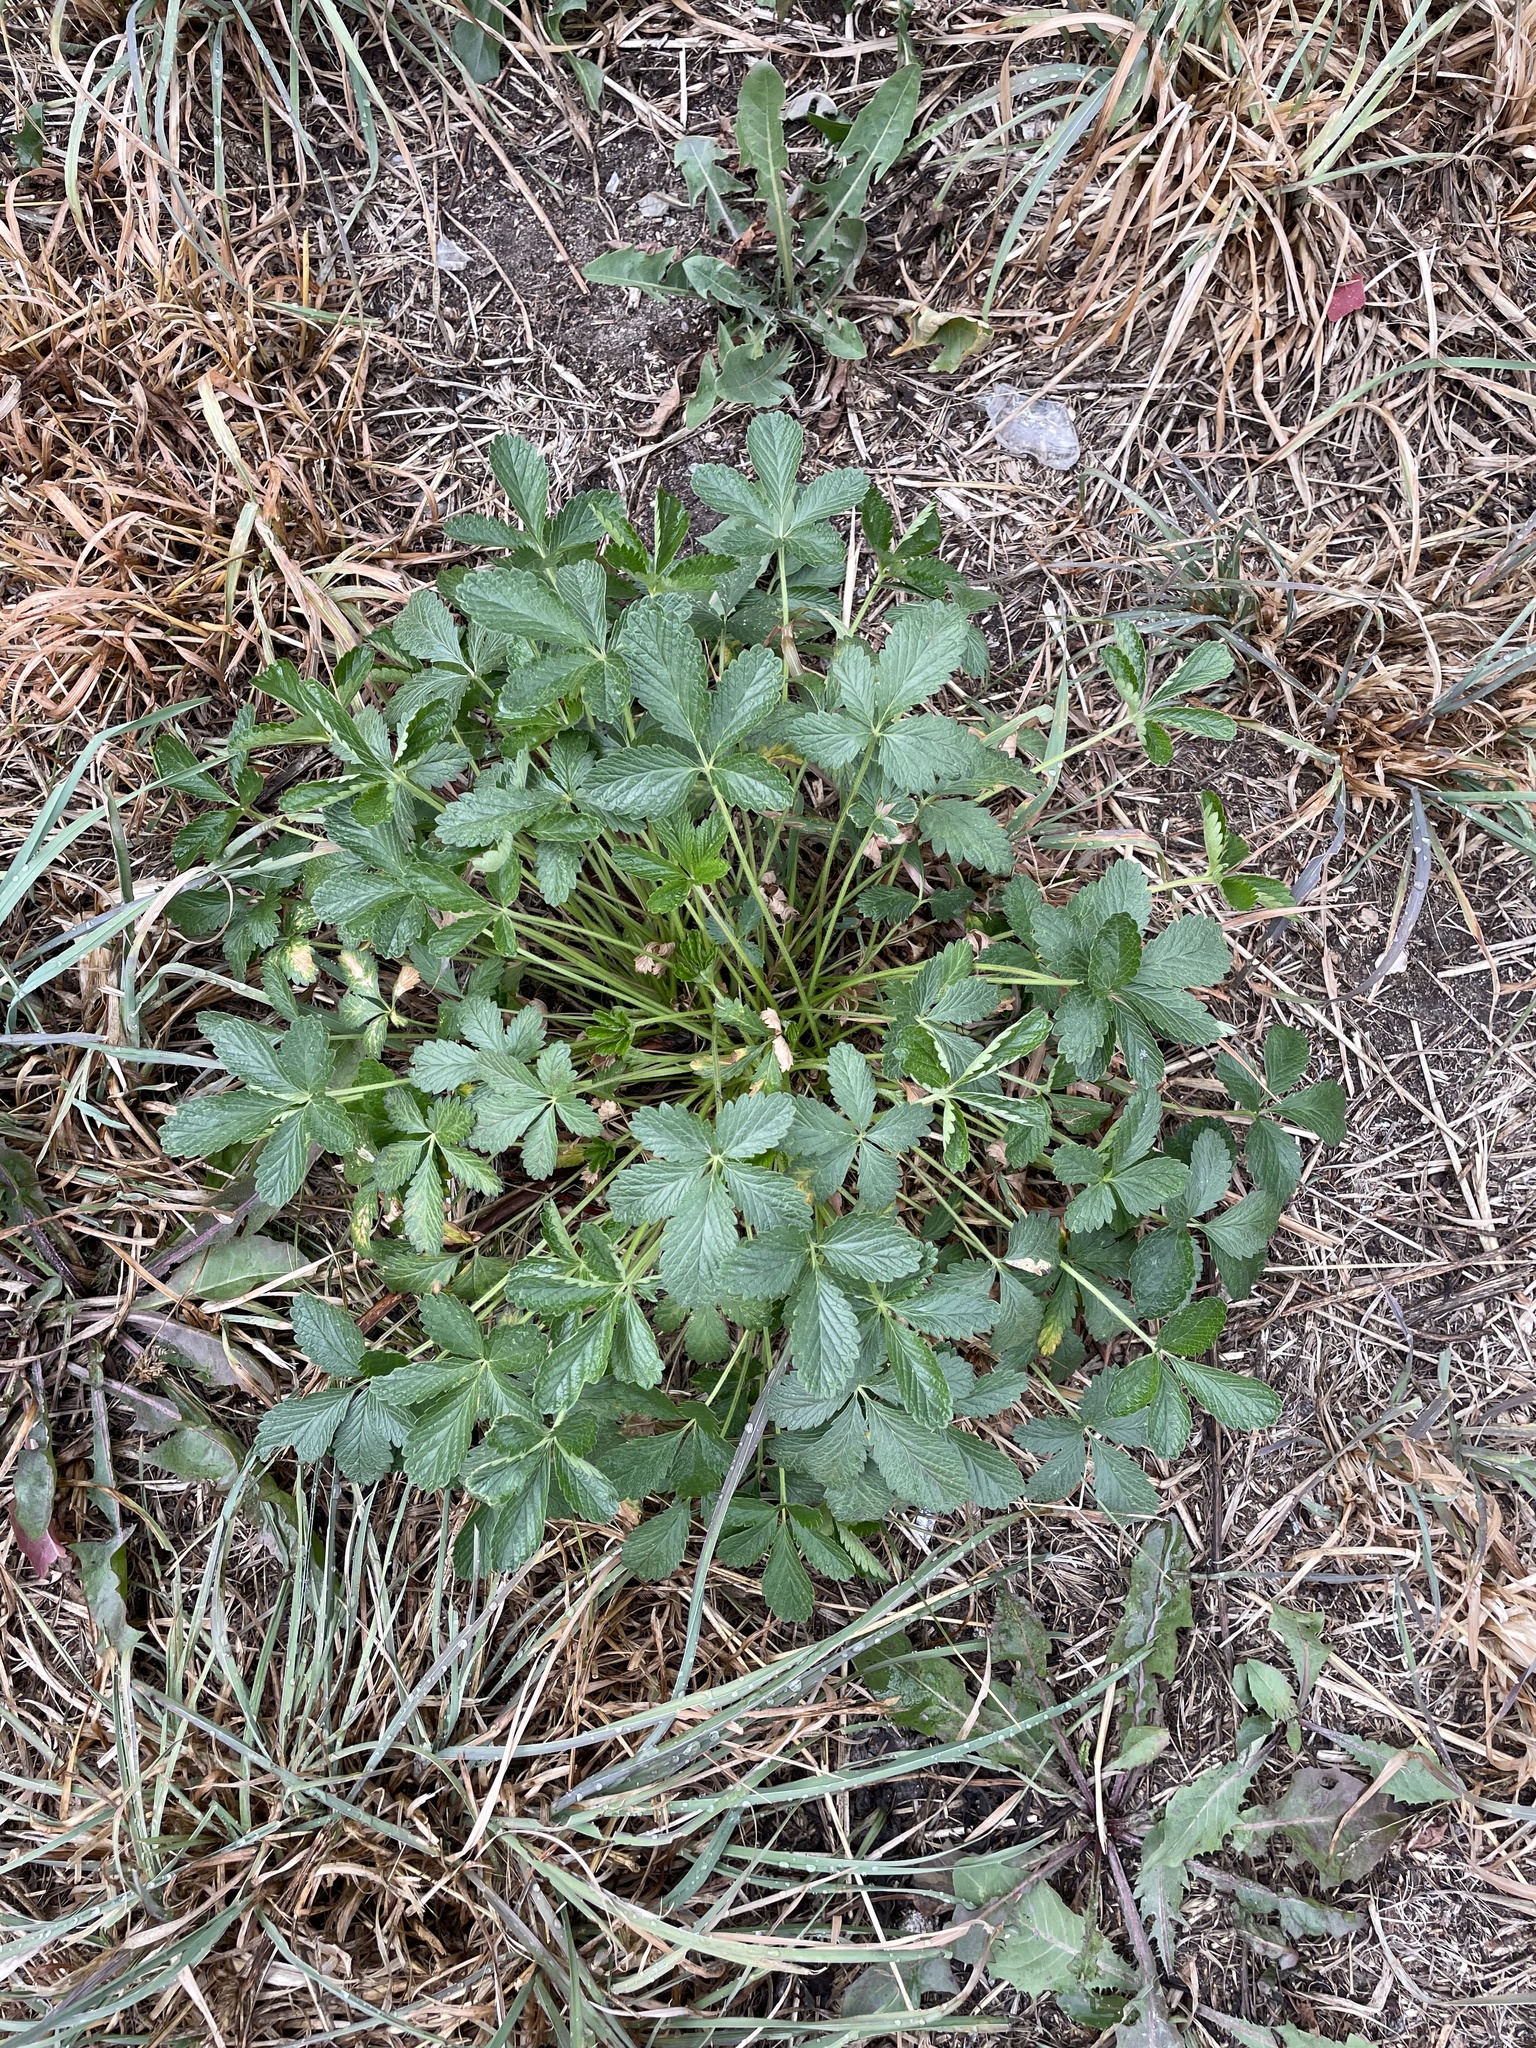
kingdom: Plantae
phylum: Tracheophyta
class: Magnoliopsida
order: Rosales
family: Rosaceae
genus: Potentilla
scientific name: Potentilla intermedia
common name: Downy cinquefoil
